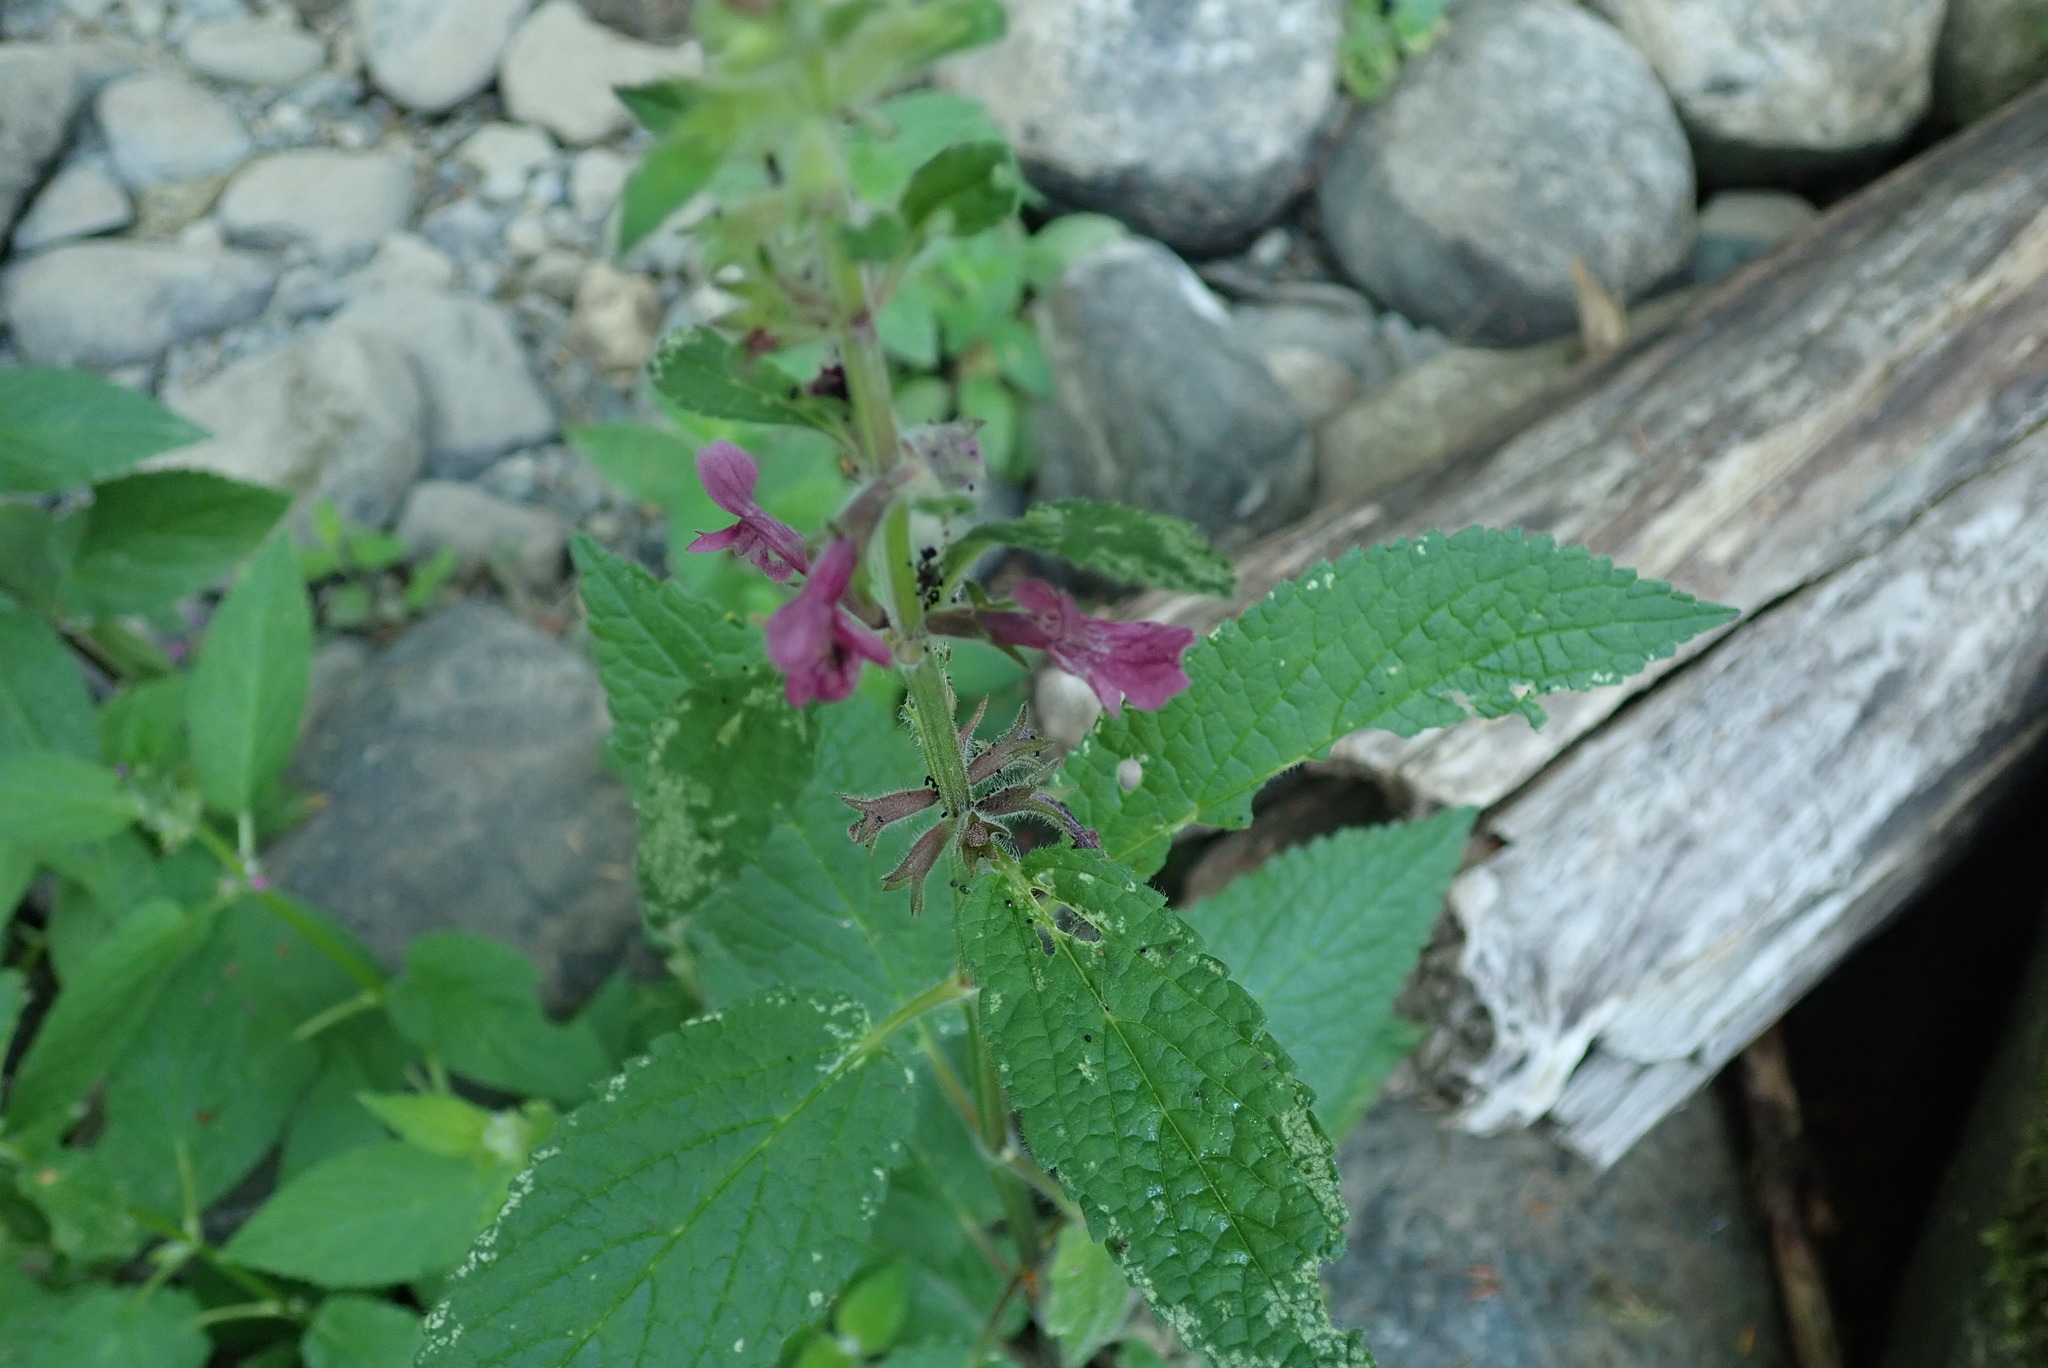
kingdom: Plantae
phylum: Tracheophyta
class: Magnoliopsida
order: Lamiales
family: Lamiaceae
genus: Stachys
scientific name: Stachys chamissonis
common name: Coastal hedge-nettle
